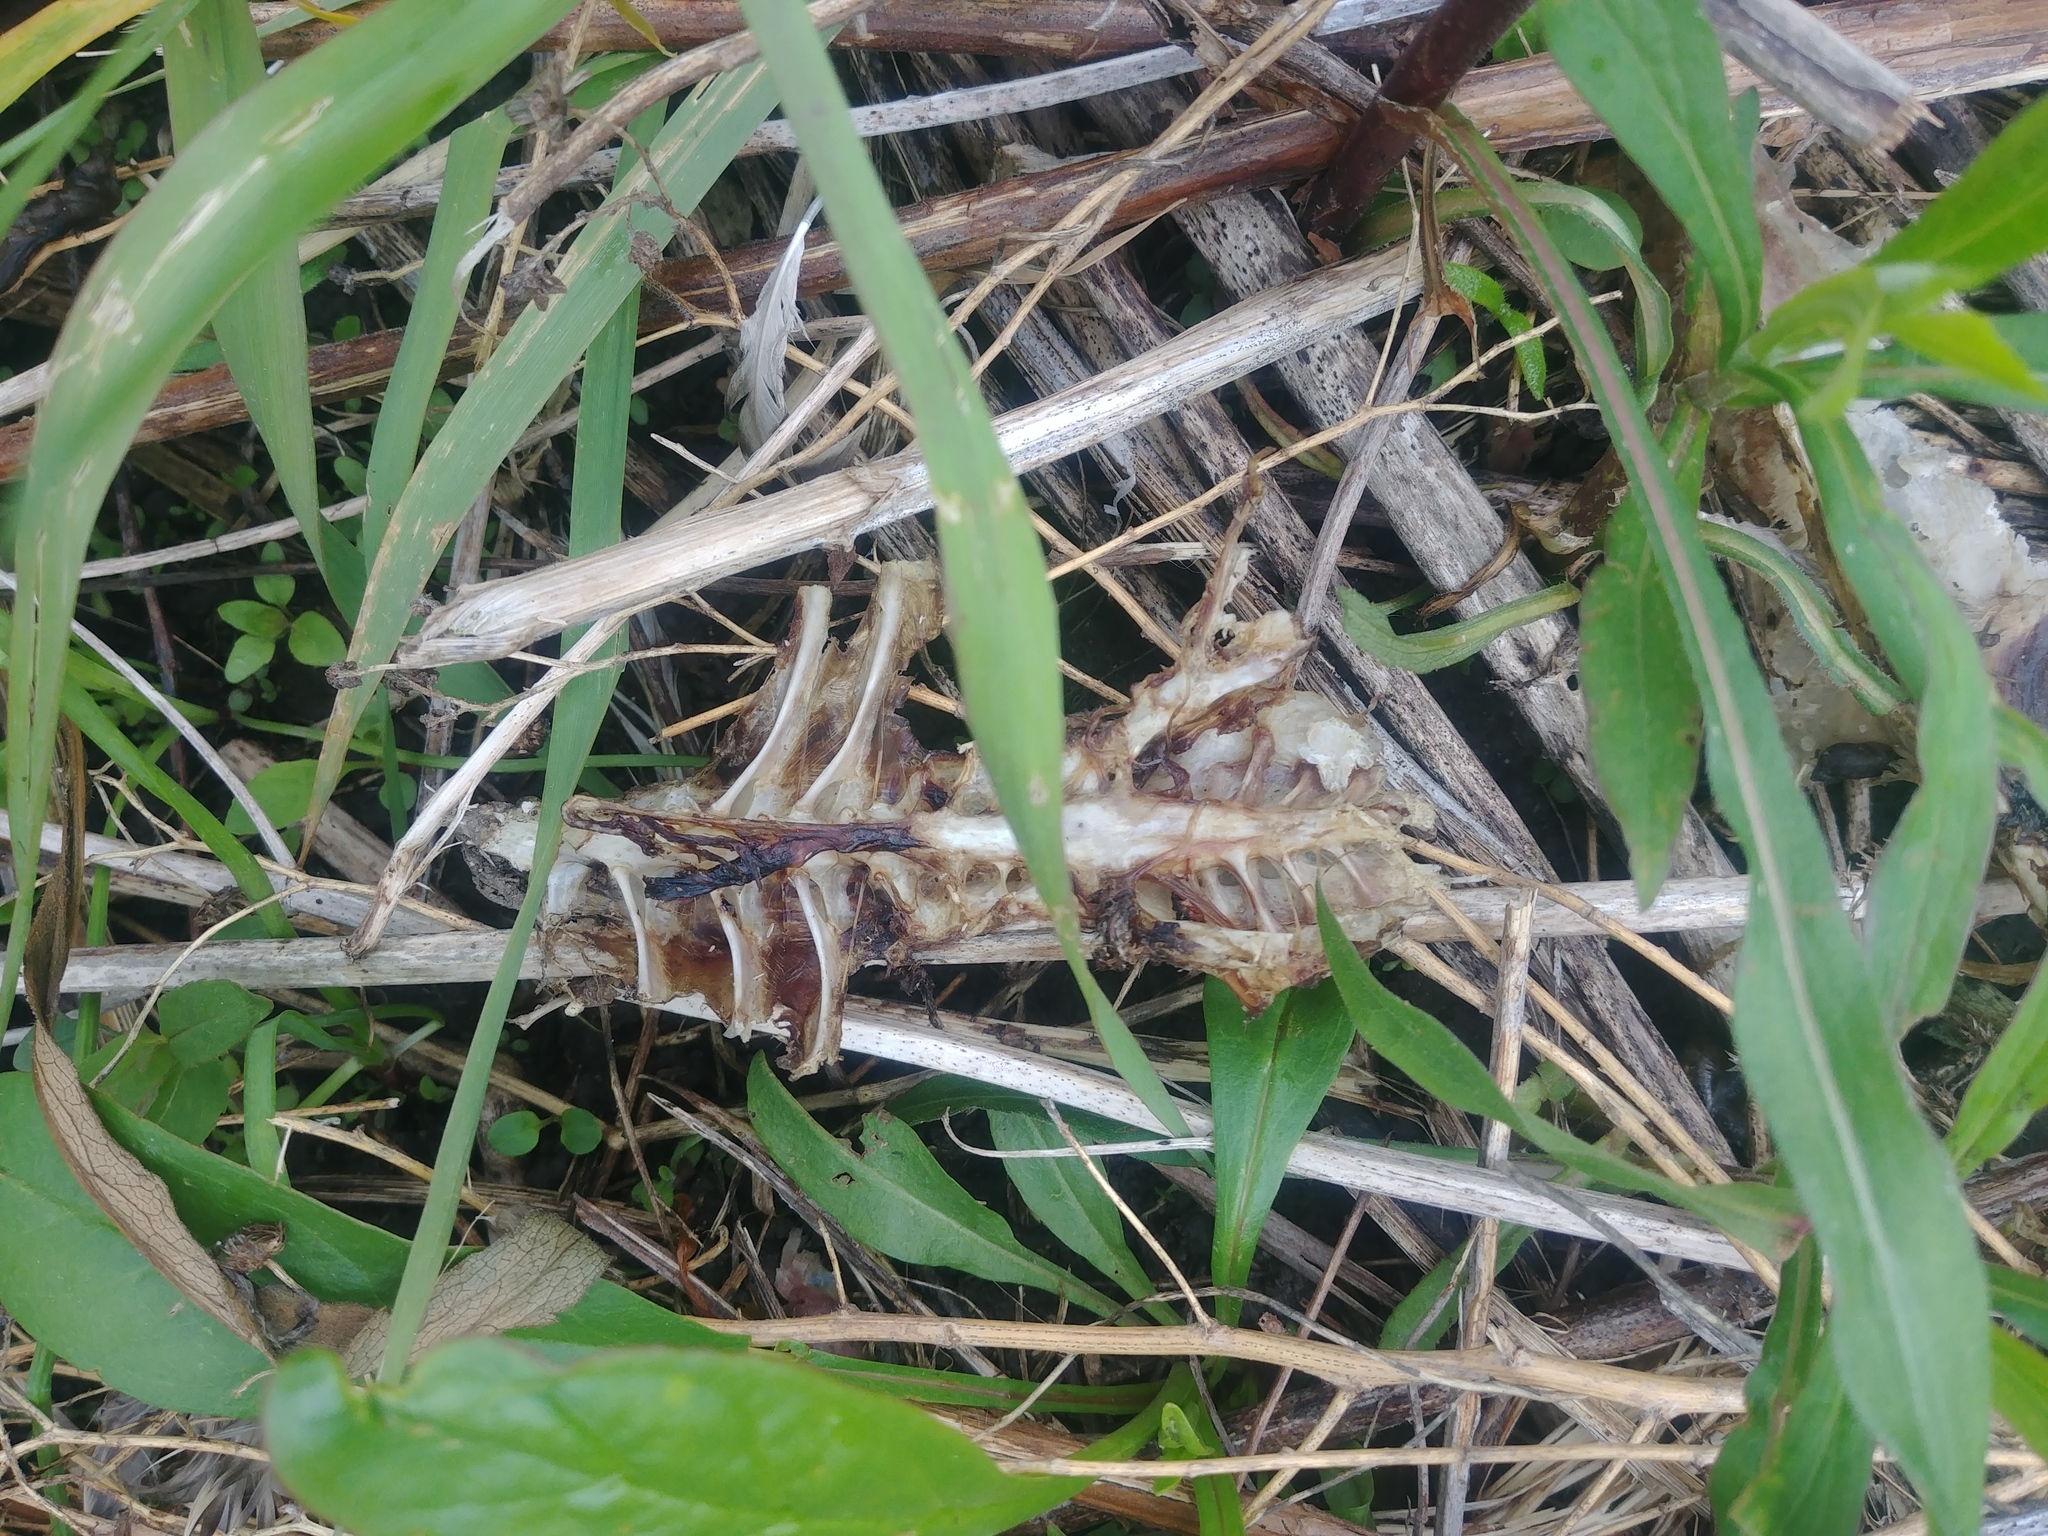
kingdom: Animalia
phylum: Chordata
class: Aves
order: Anseriformes
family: Anatidae
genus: Anas
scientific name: Anas platyrhynchos
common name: Mallard
